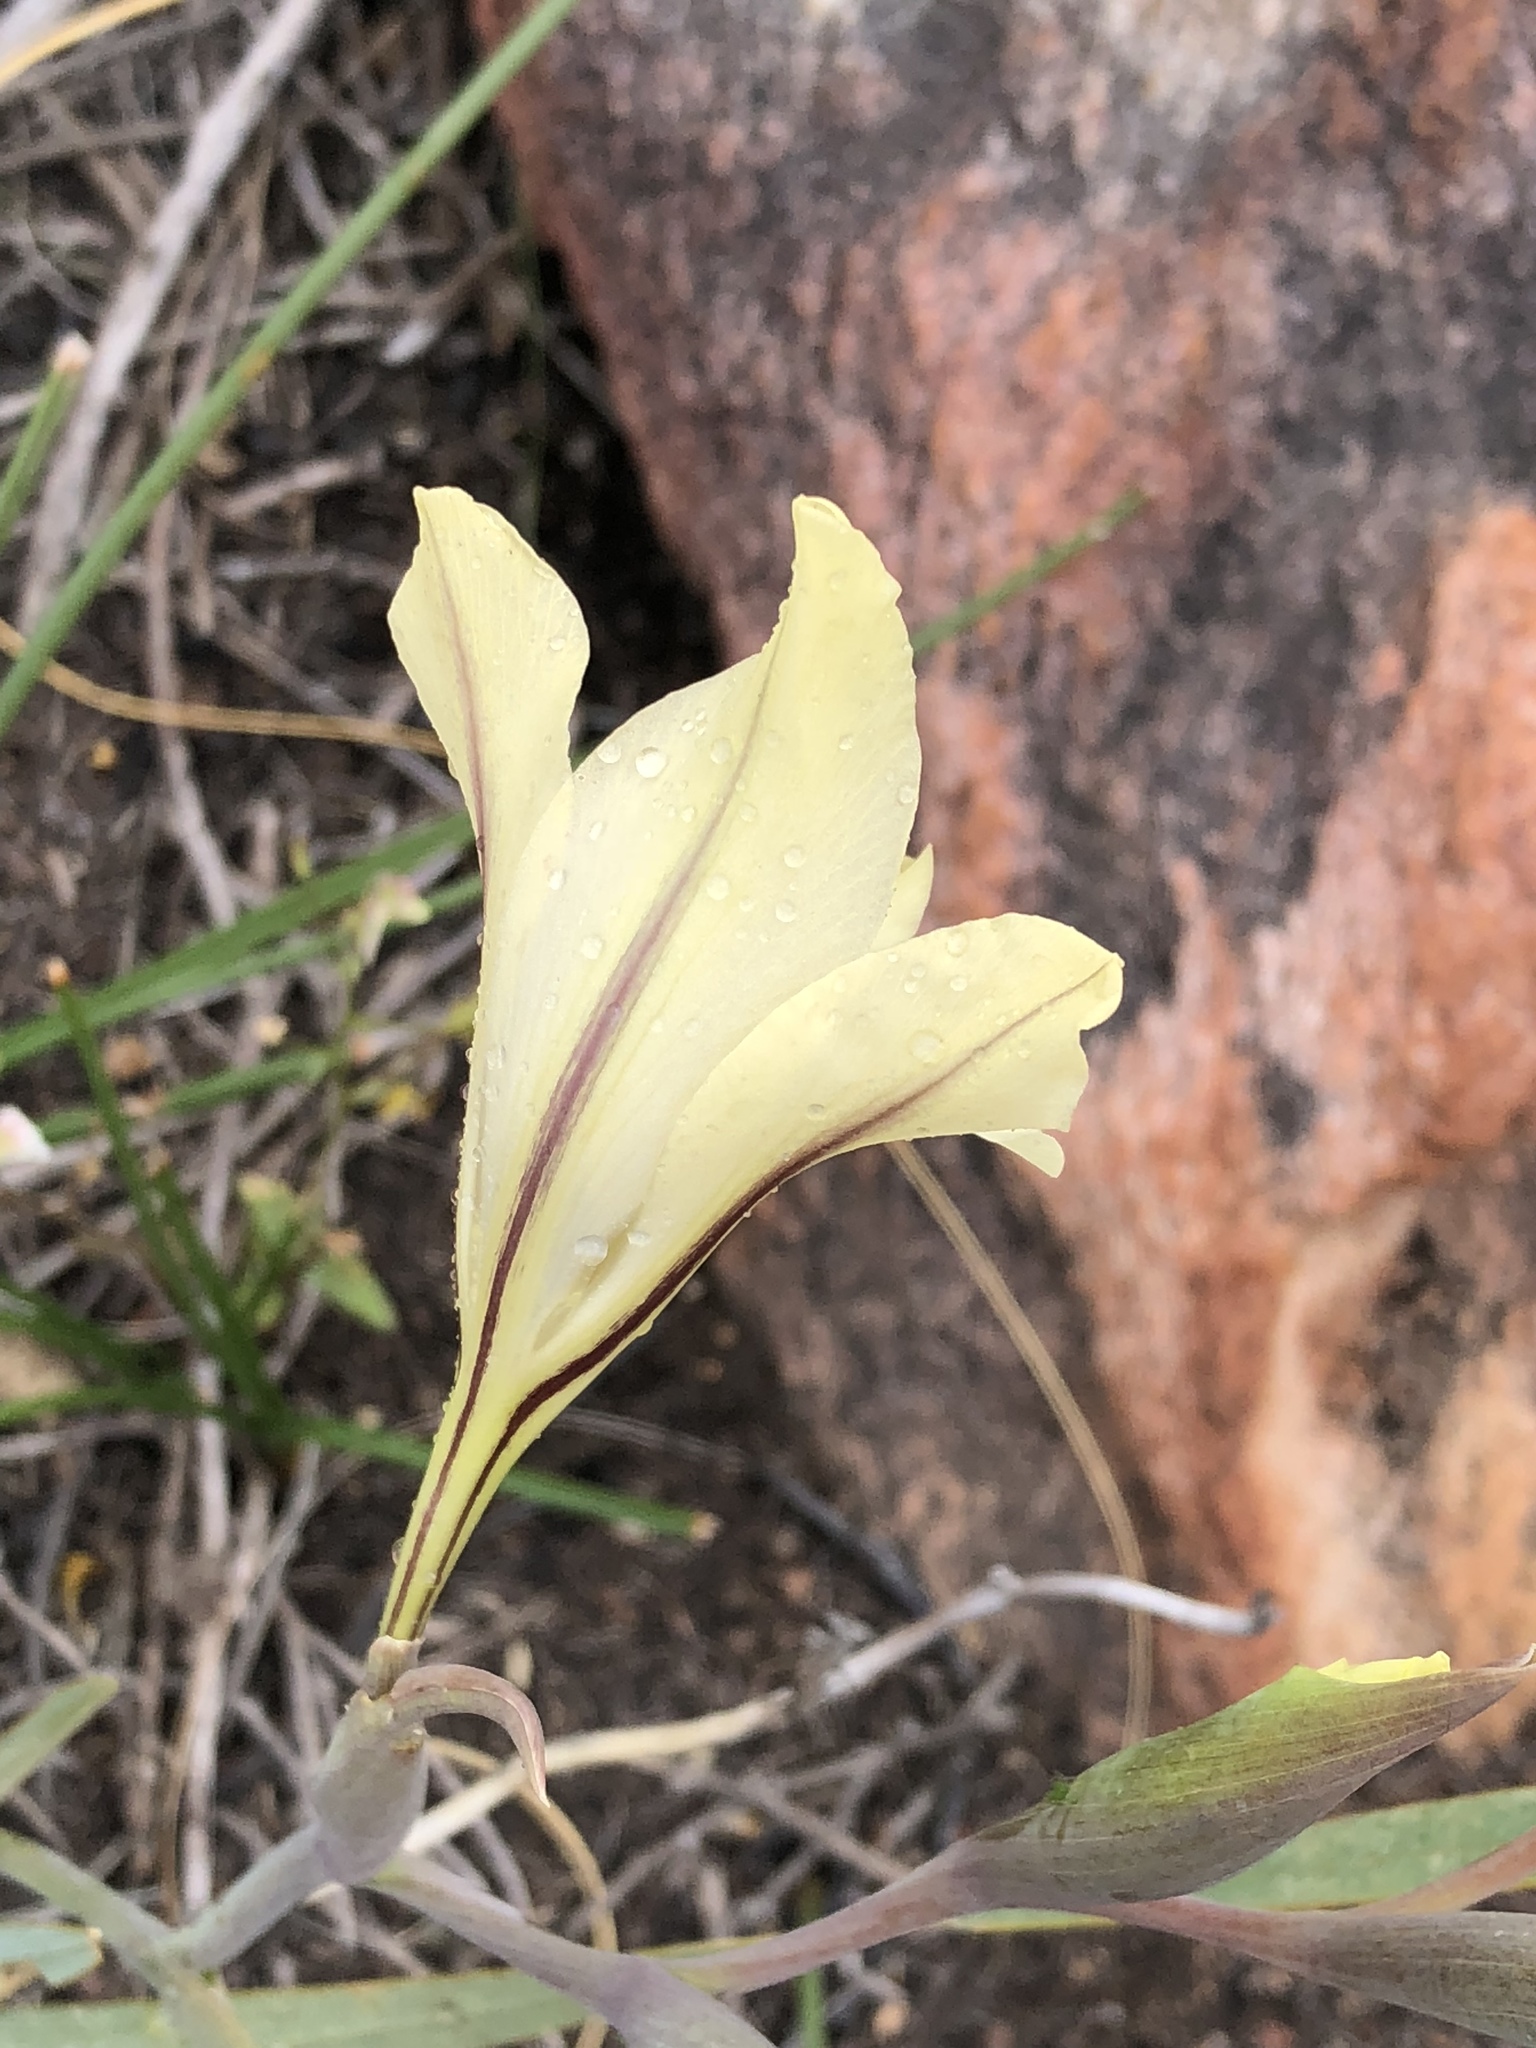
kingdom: Plantae
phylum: Tracheophyta
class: Liliopsida
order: Asparagales
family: Iridaceae
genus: Gladiolus
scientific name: Gladiolus floribundus
